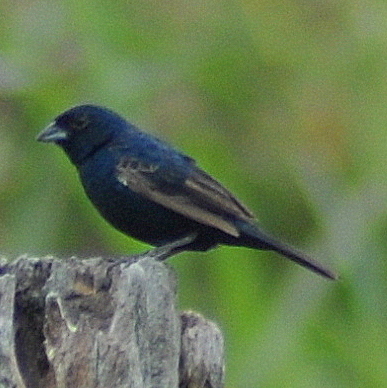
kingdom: Animalia
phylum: Chordata
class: Aves
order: Passeriformes
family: Thraupidae
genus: Volatinia
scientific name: Volatinia jacarina
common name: Blue-black grassquit
